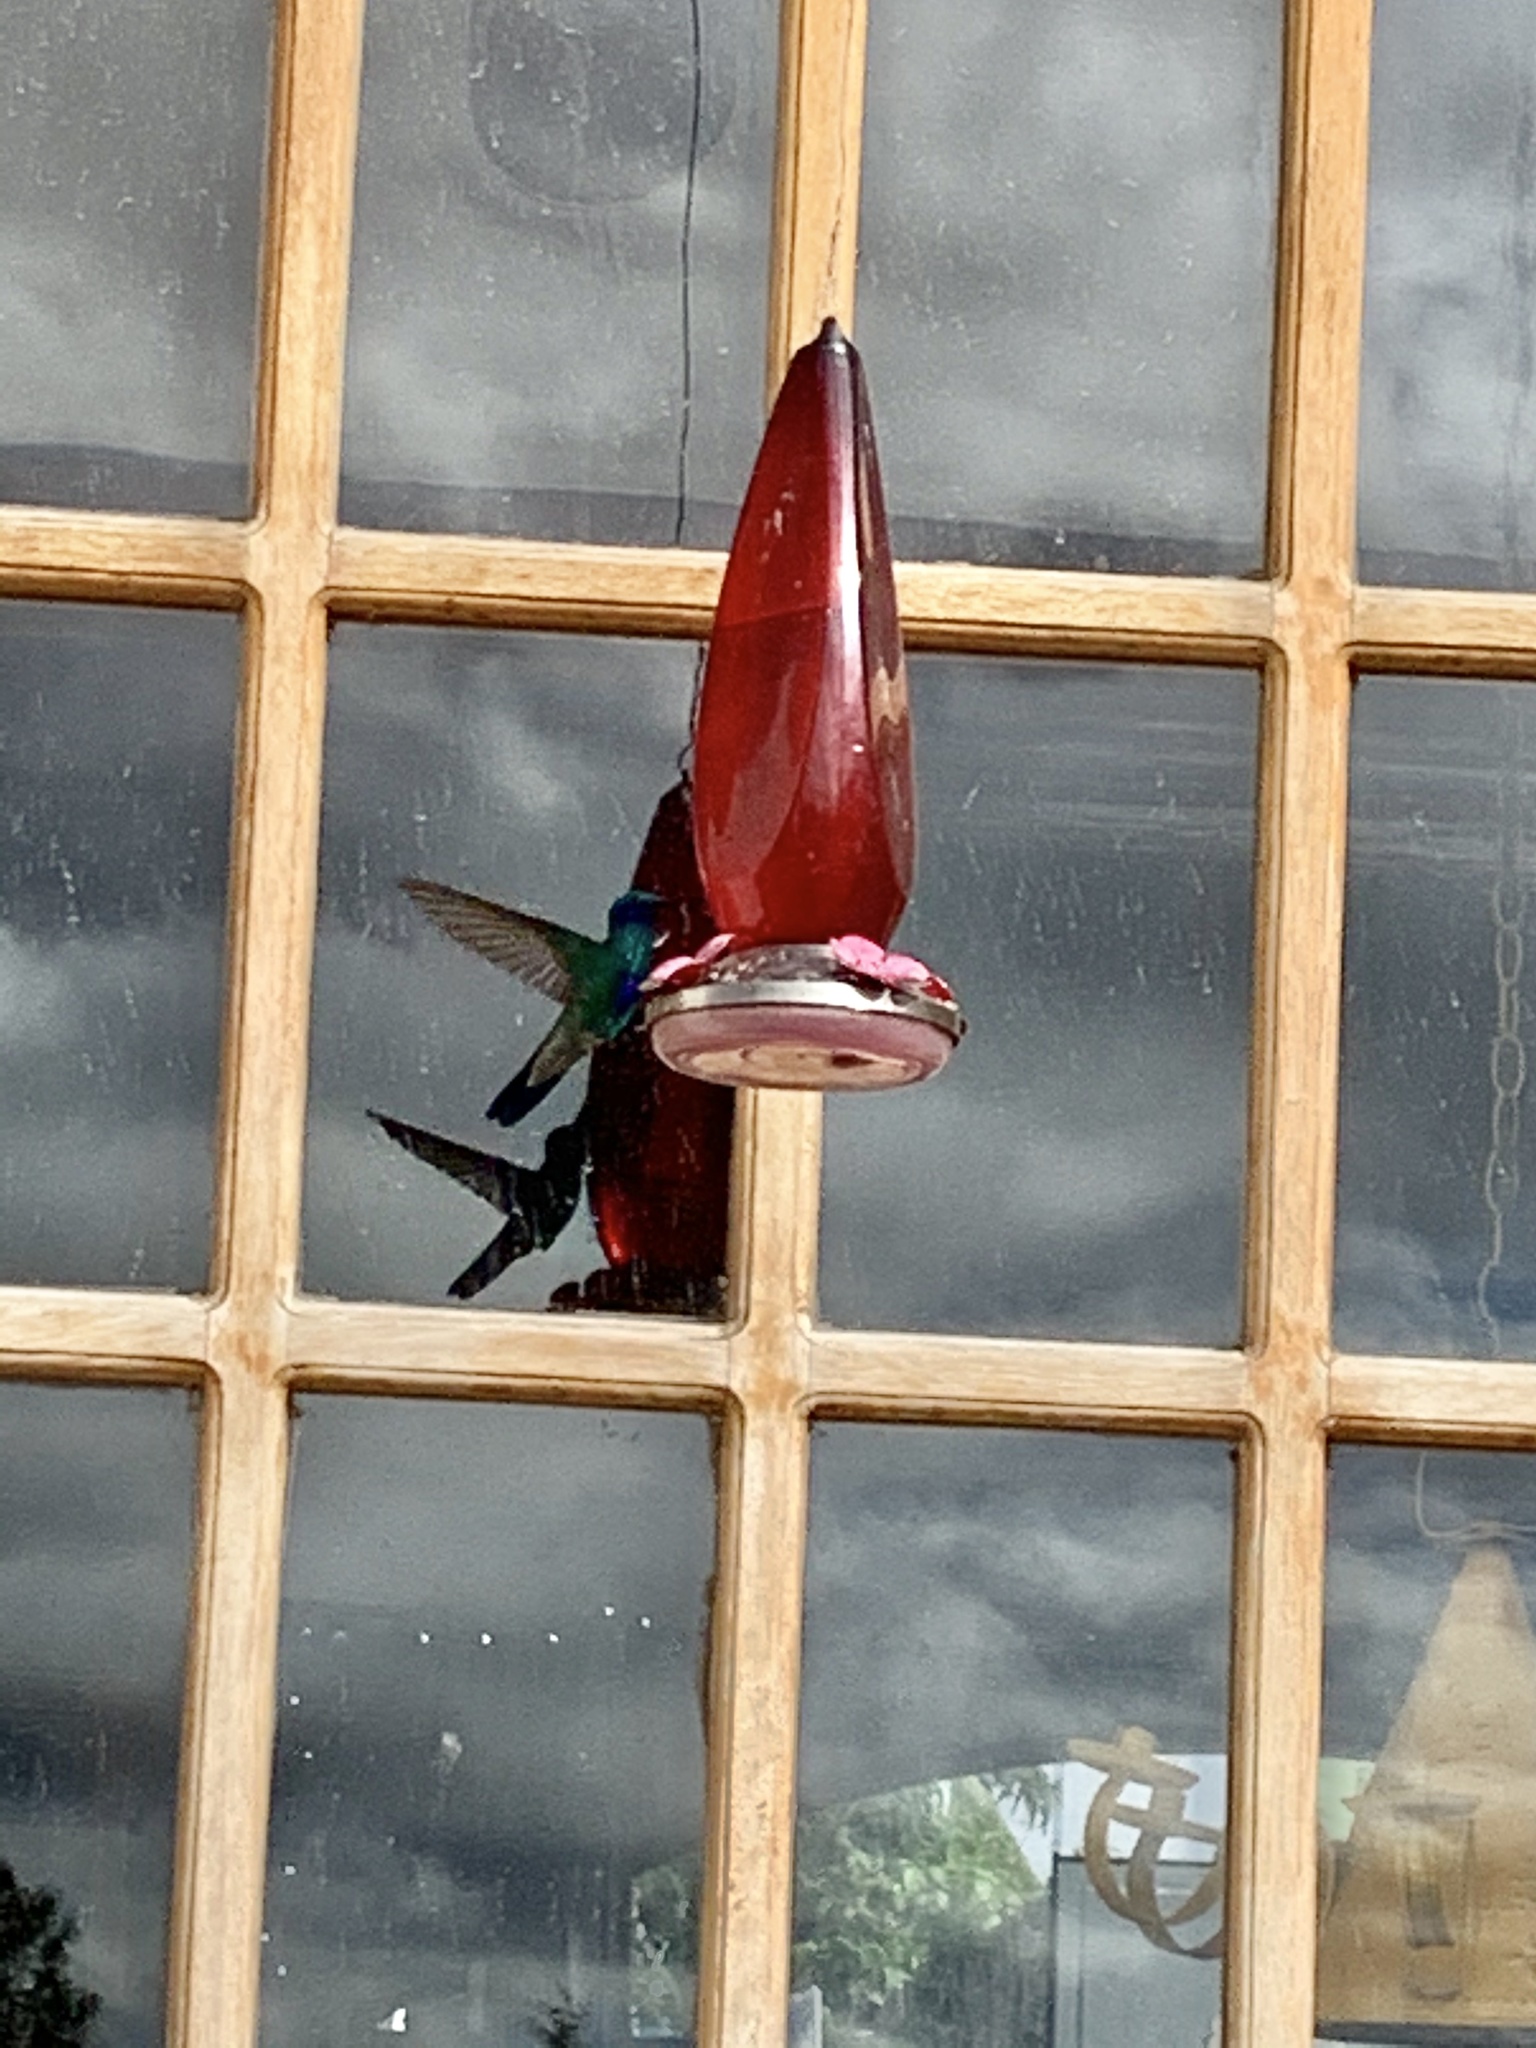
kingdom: Animalia
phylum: Chordata
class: Aves
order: Apodiformes
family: Trochilidae
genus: Colibri
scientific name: Colibri coruscans
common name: Sparkling violetear
